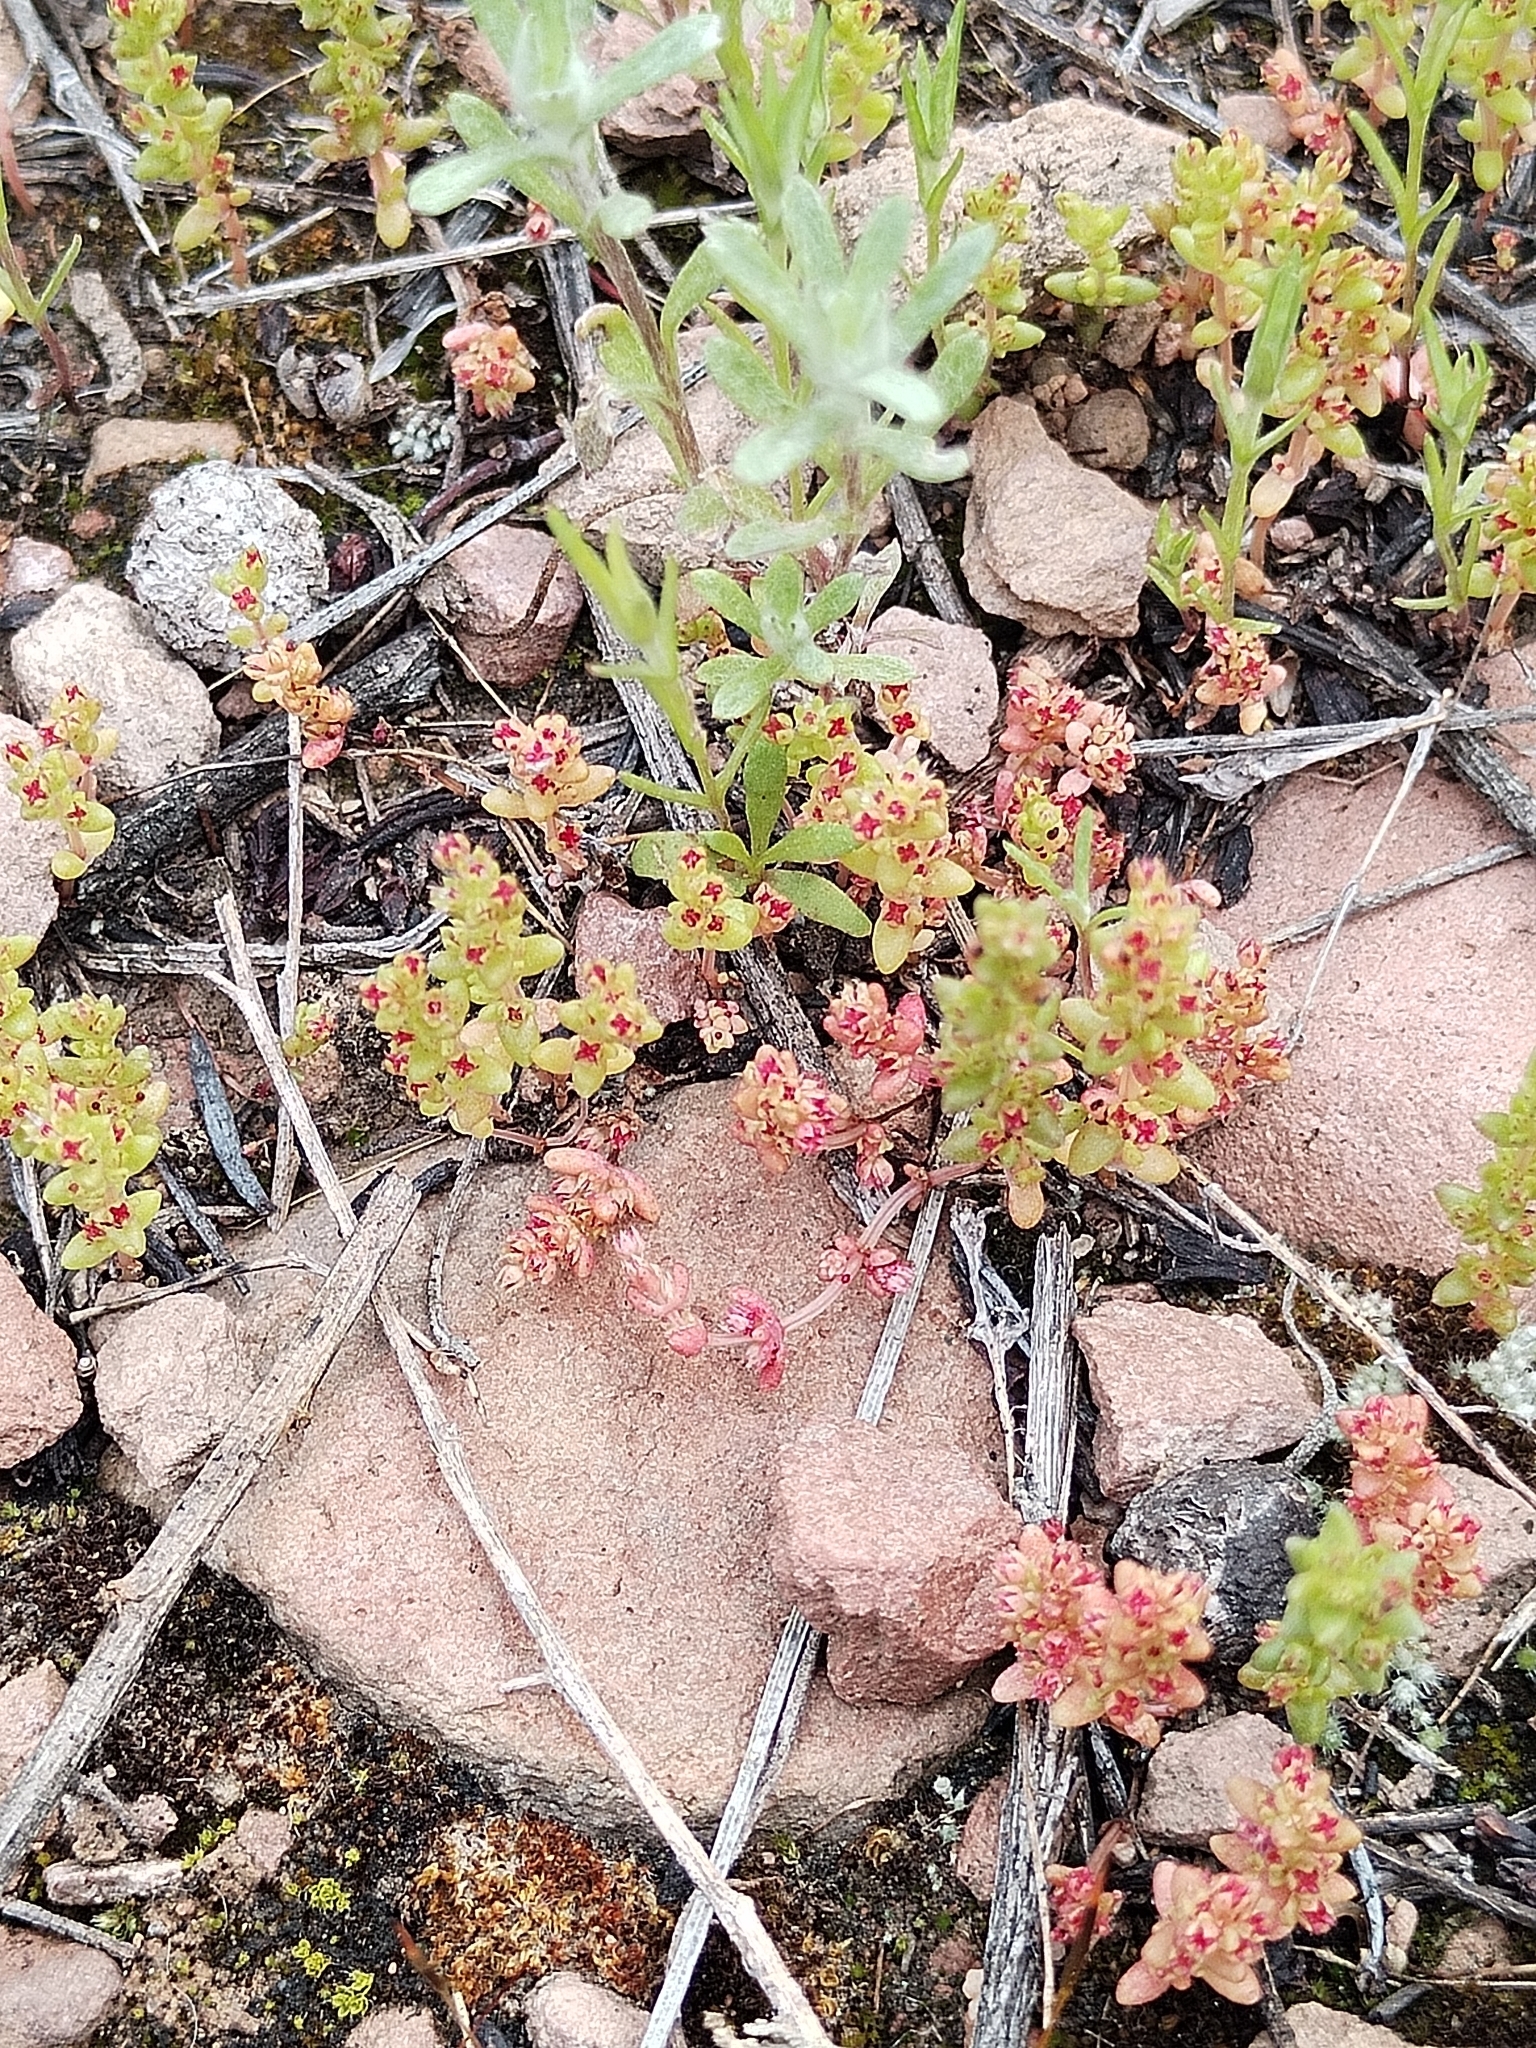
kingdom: Plantae
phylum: Tracheophyta
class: Magnoliopsida
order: Saxifragales
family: Crassulaceae
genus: Crassula
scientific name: Crassula connata
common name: Erect pygmyweed
